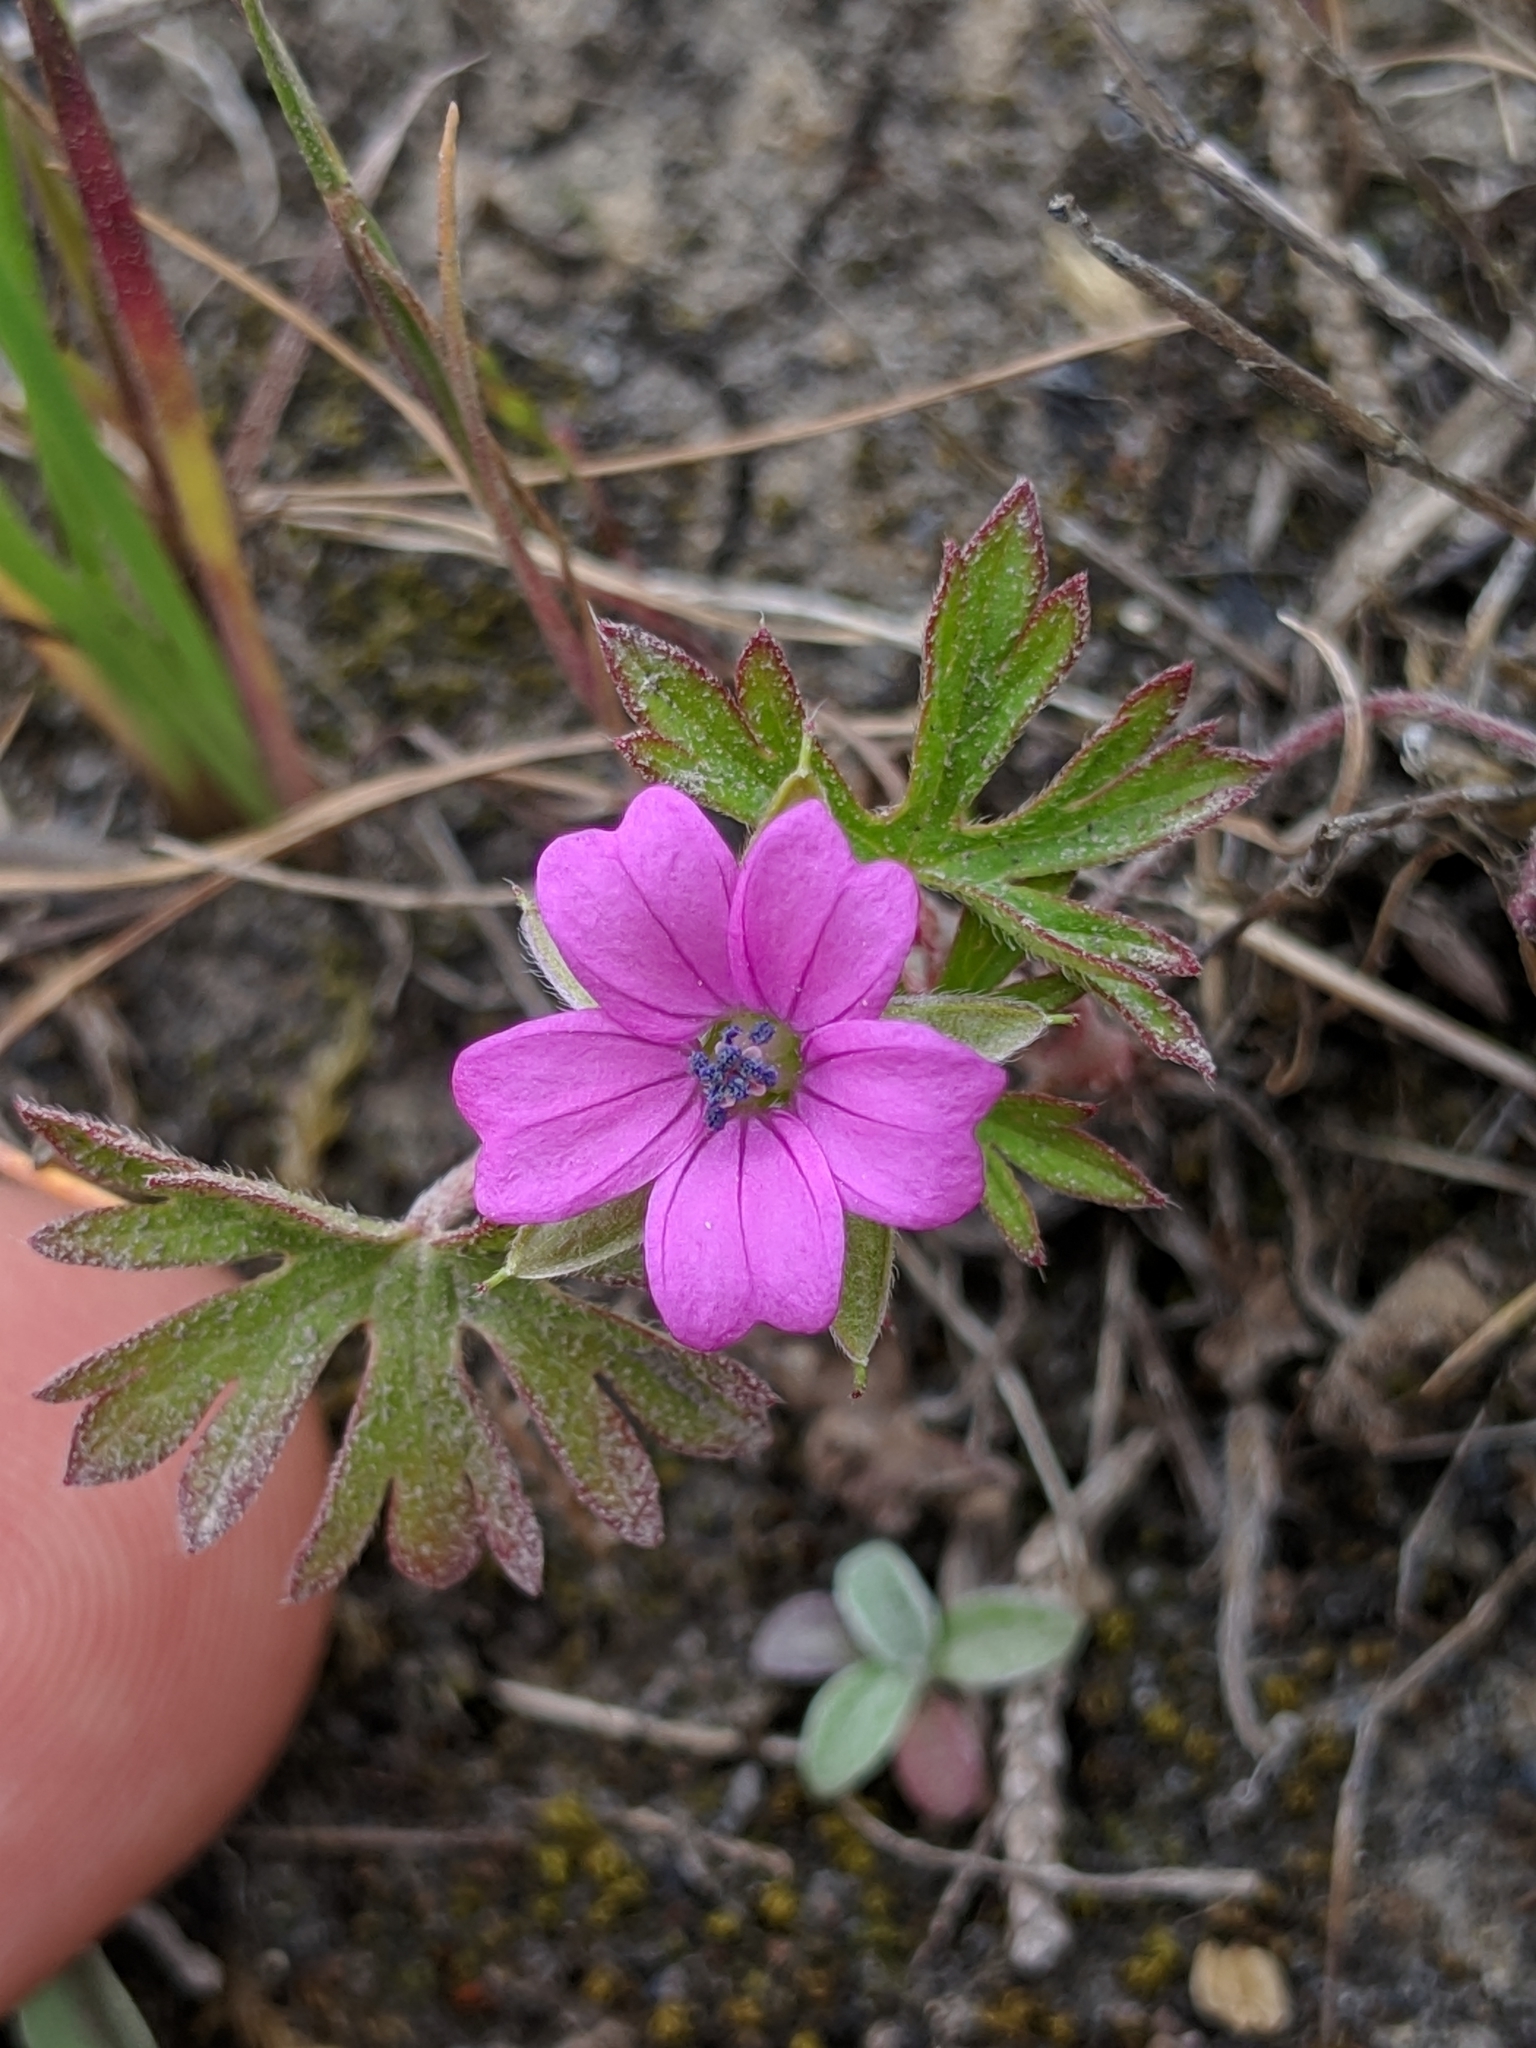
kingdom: Plantae
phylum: Tracheophyta
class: Magnoliopsida
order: Geraniales
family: Geraniaceae
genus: Geranium
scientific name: Geranium dissectum
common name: Cut-leaved crane's-bill
